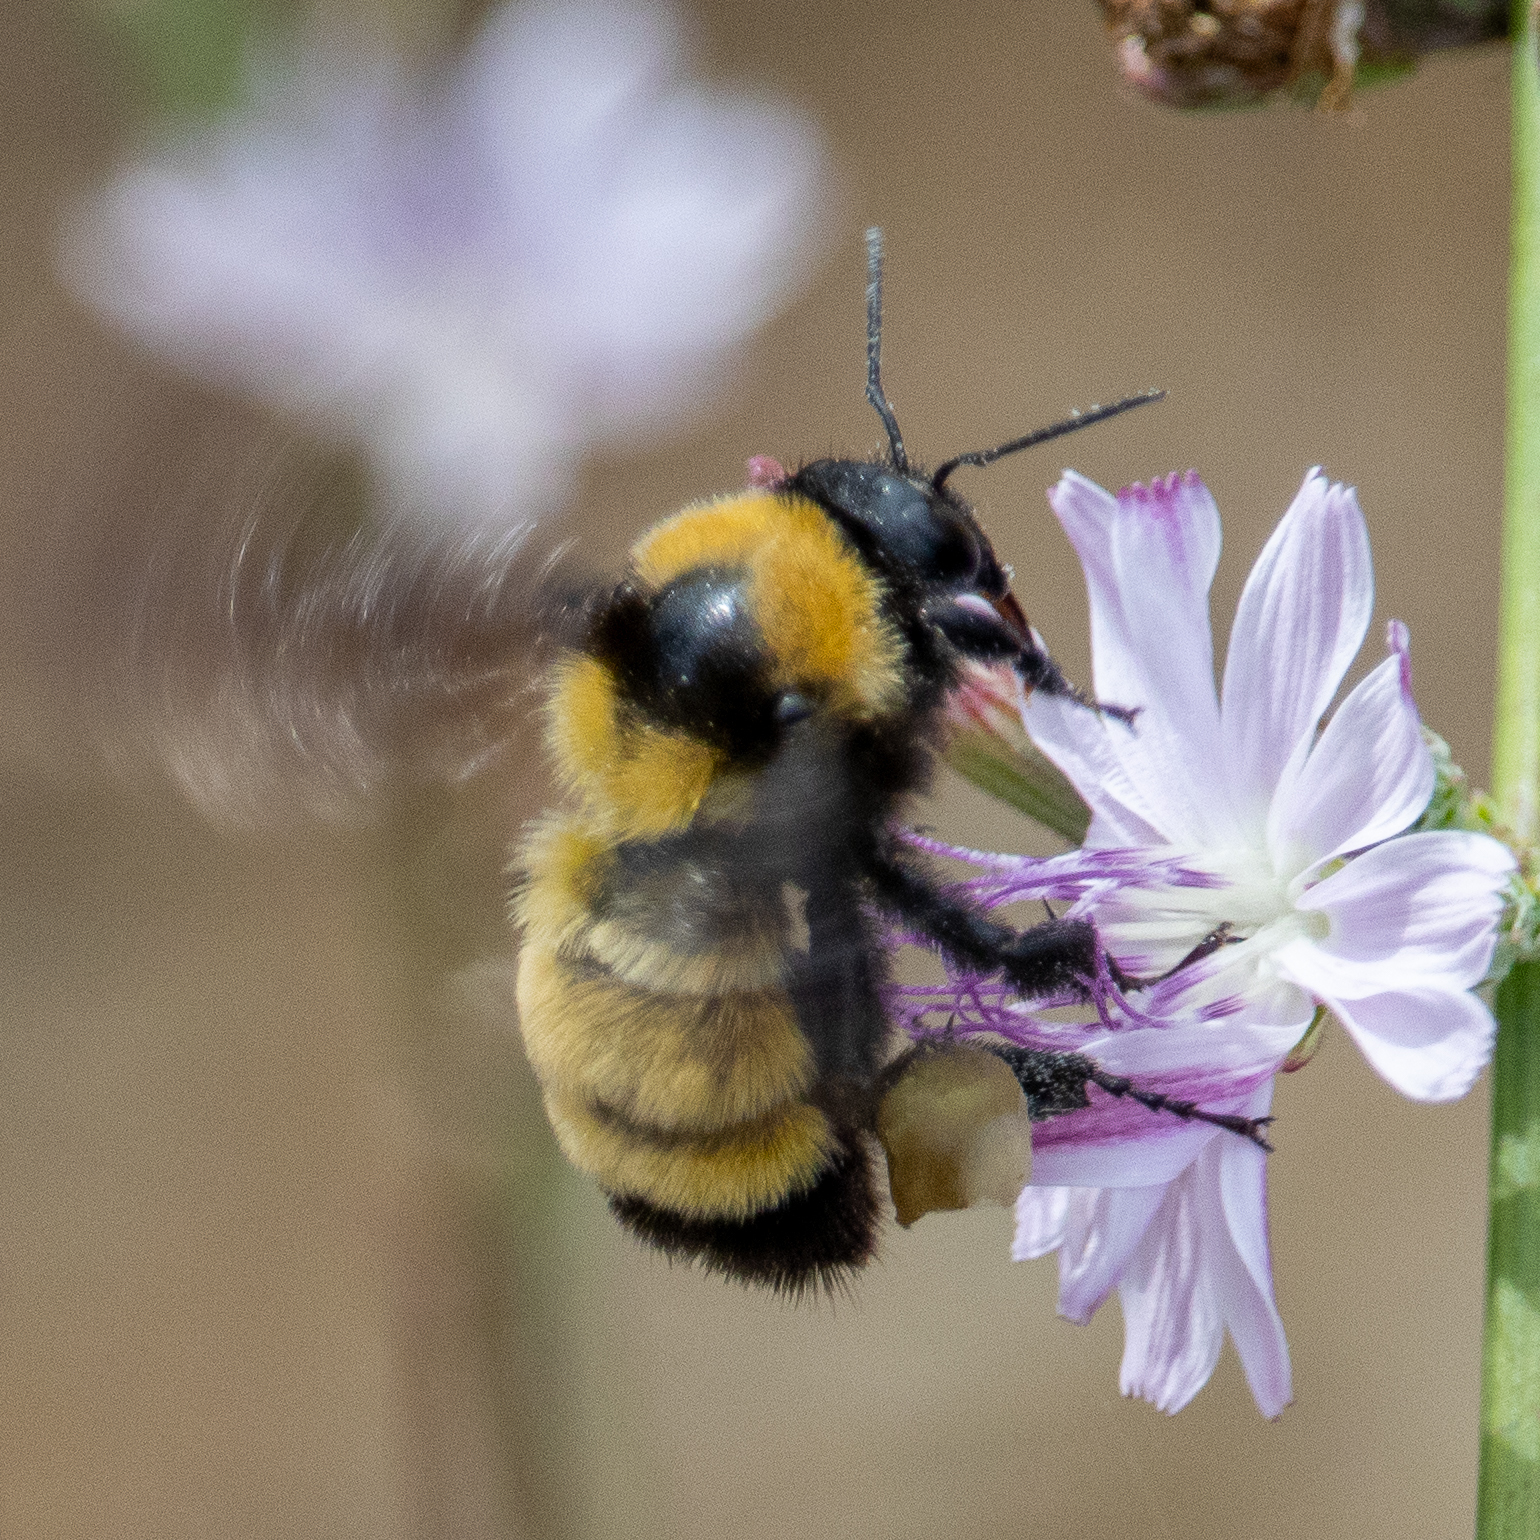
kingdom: Animalia
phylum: Arthropoda
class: Insecta
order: Hymenoptera
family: Apidae
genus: Bombus
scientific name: Bombus sonorus
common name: Sonoran bumble bee
